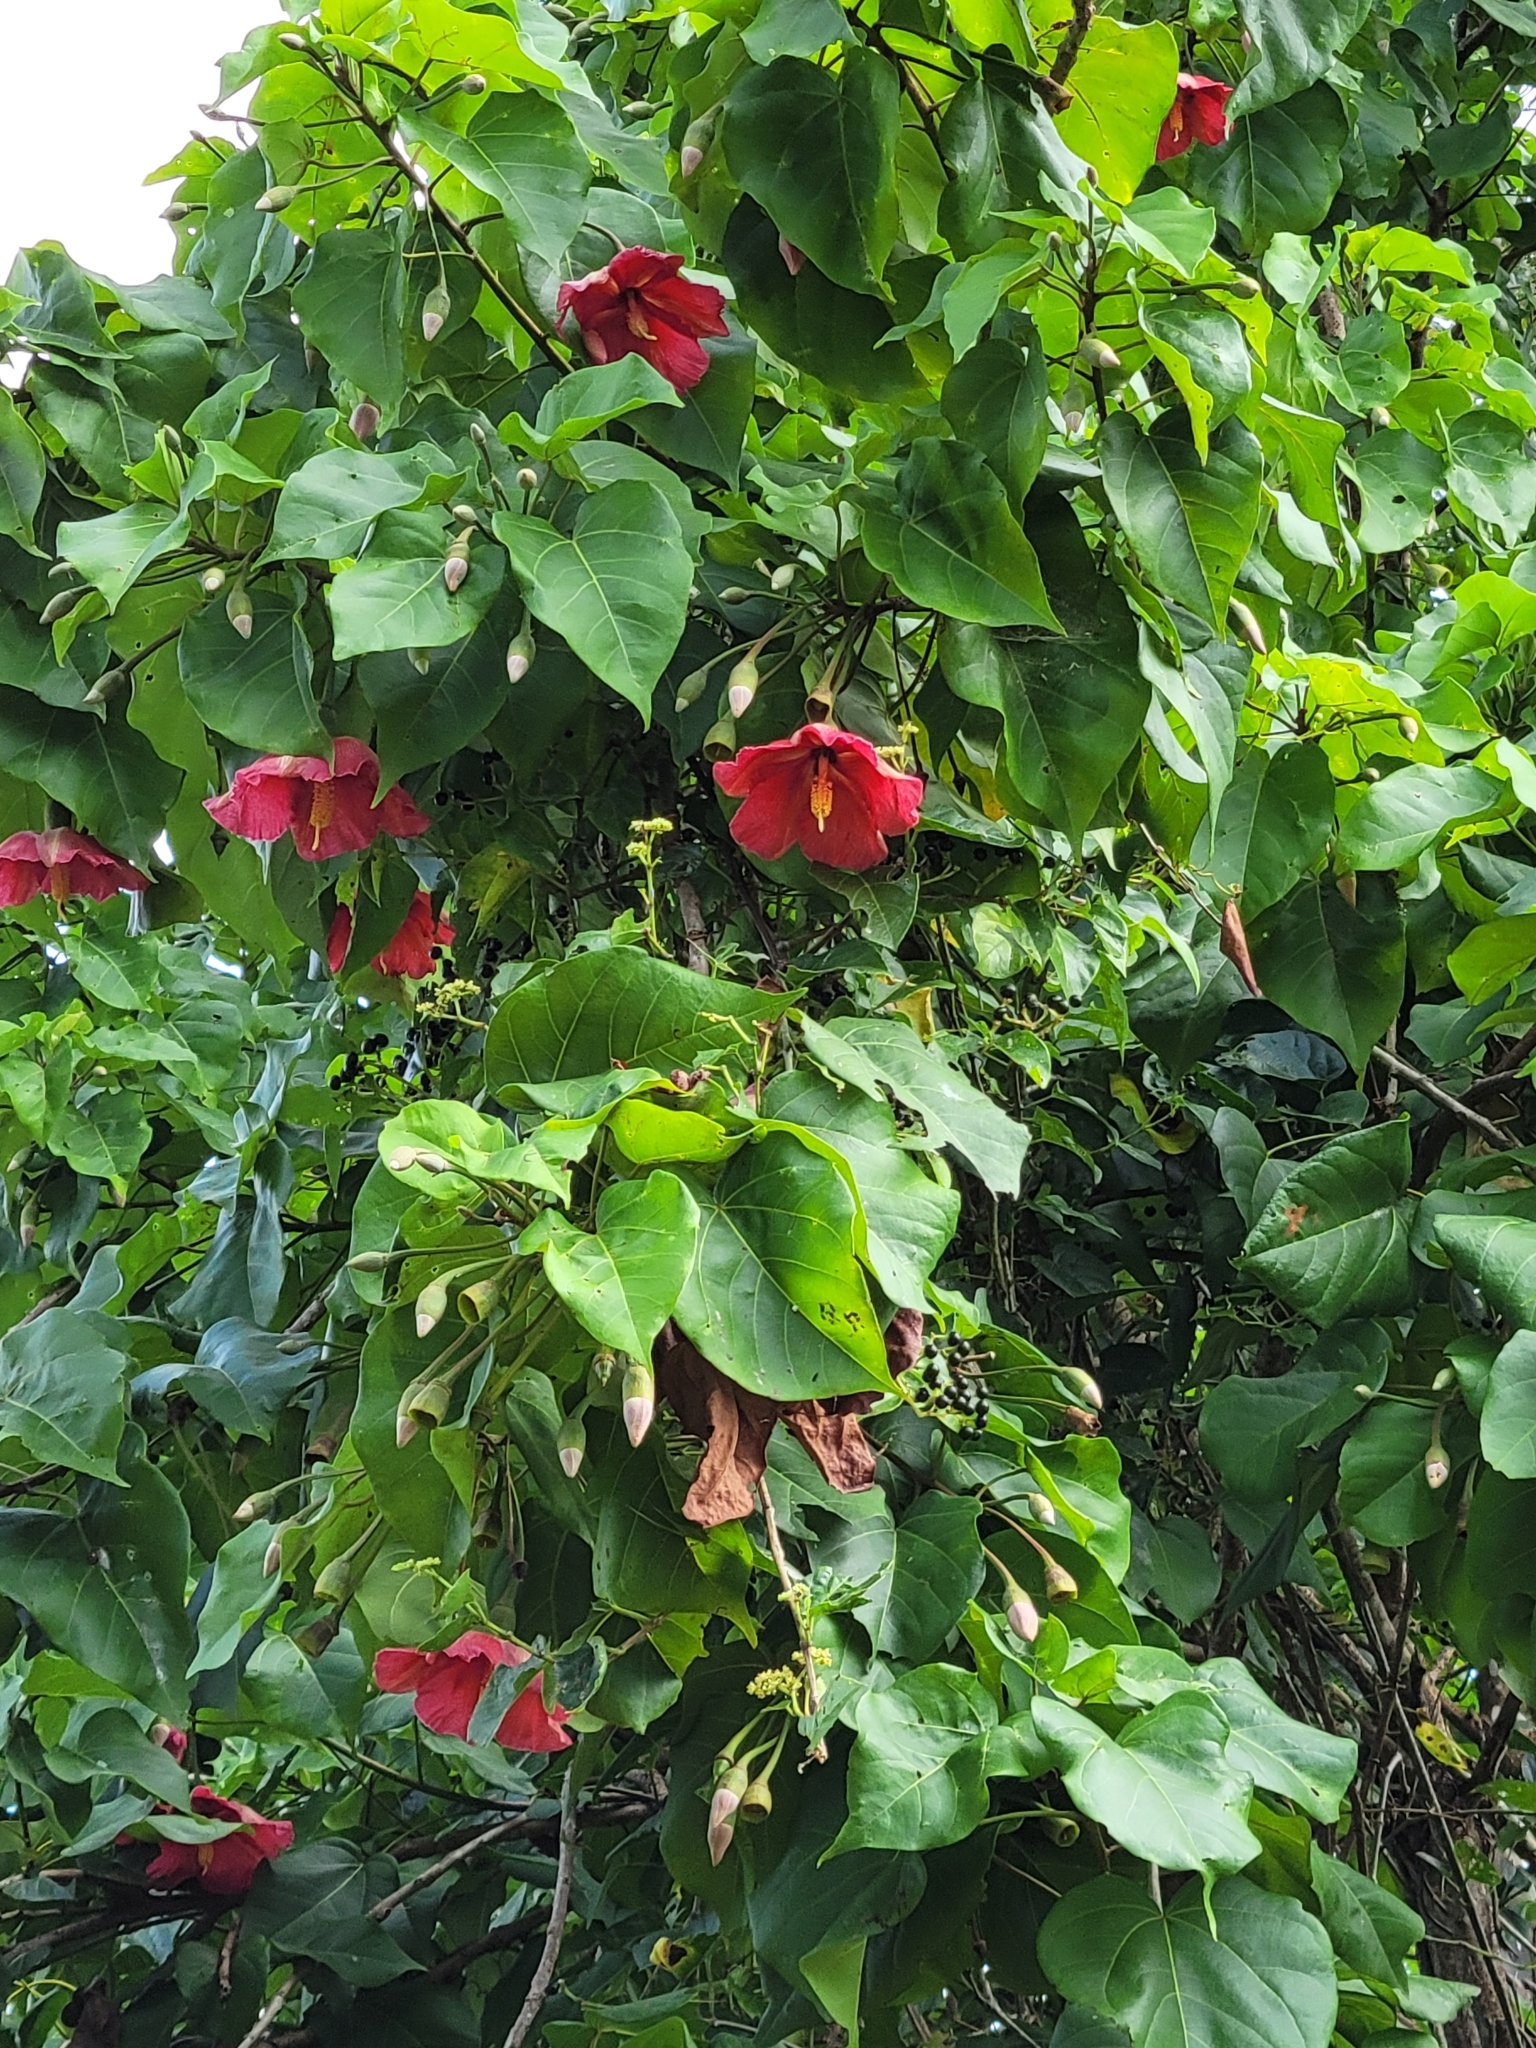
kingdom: Plantae
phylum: Tracheophyta
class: Magnoliopsida
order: Malvales
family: Malvaceae
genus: Thespesia
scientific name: Thespesia grandiflora
